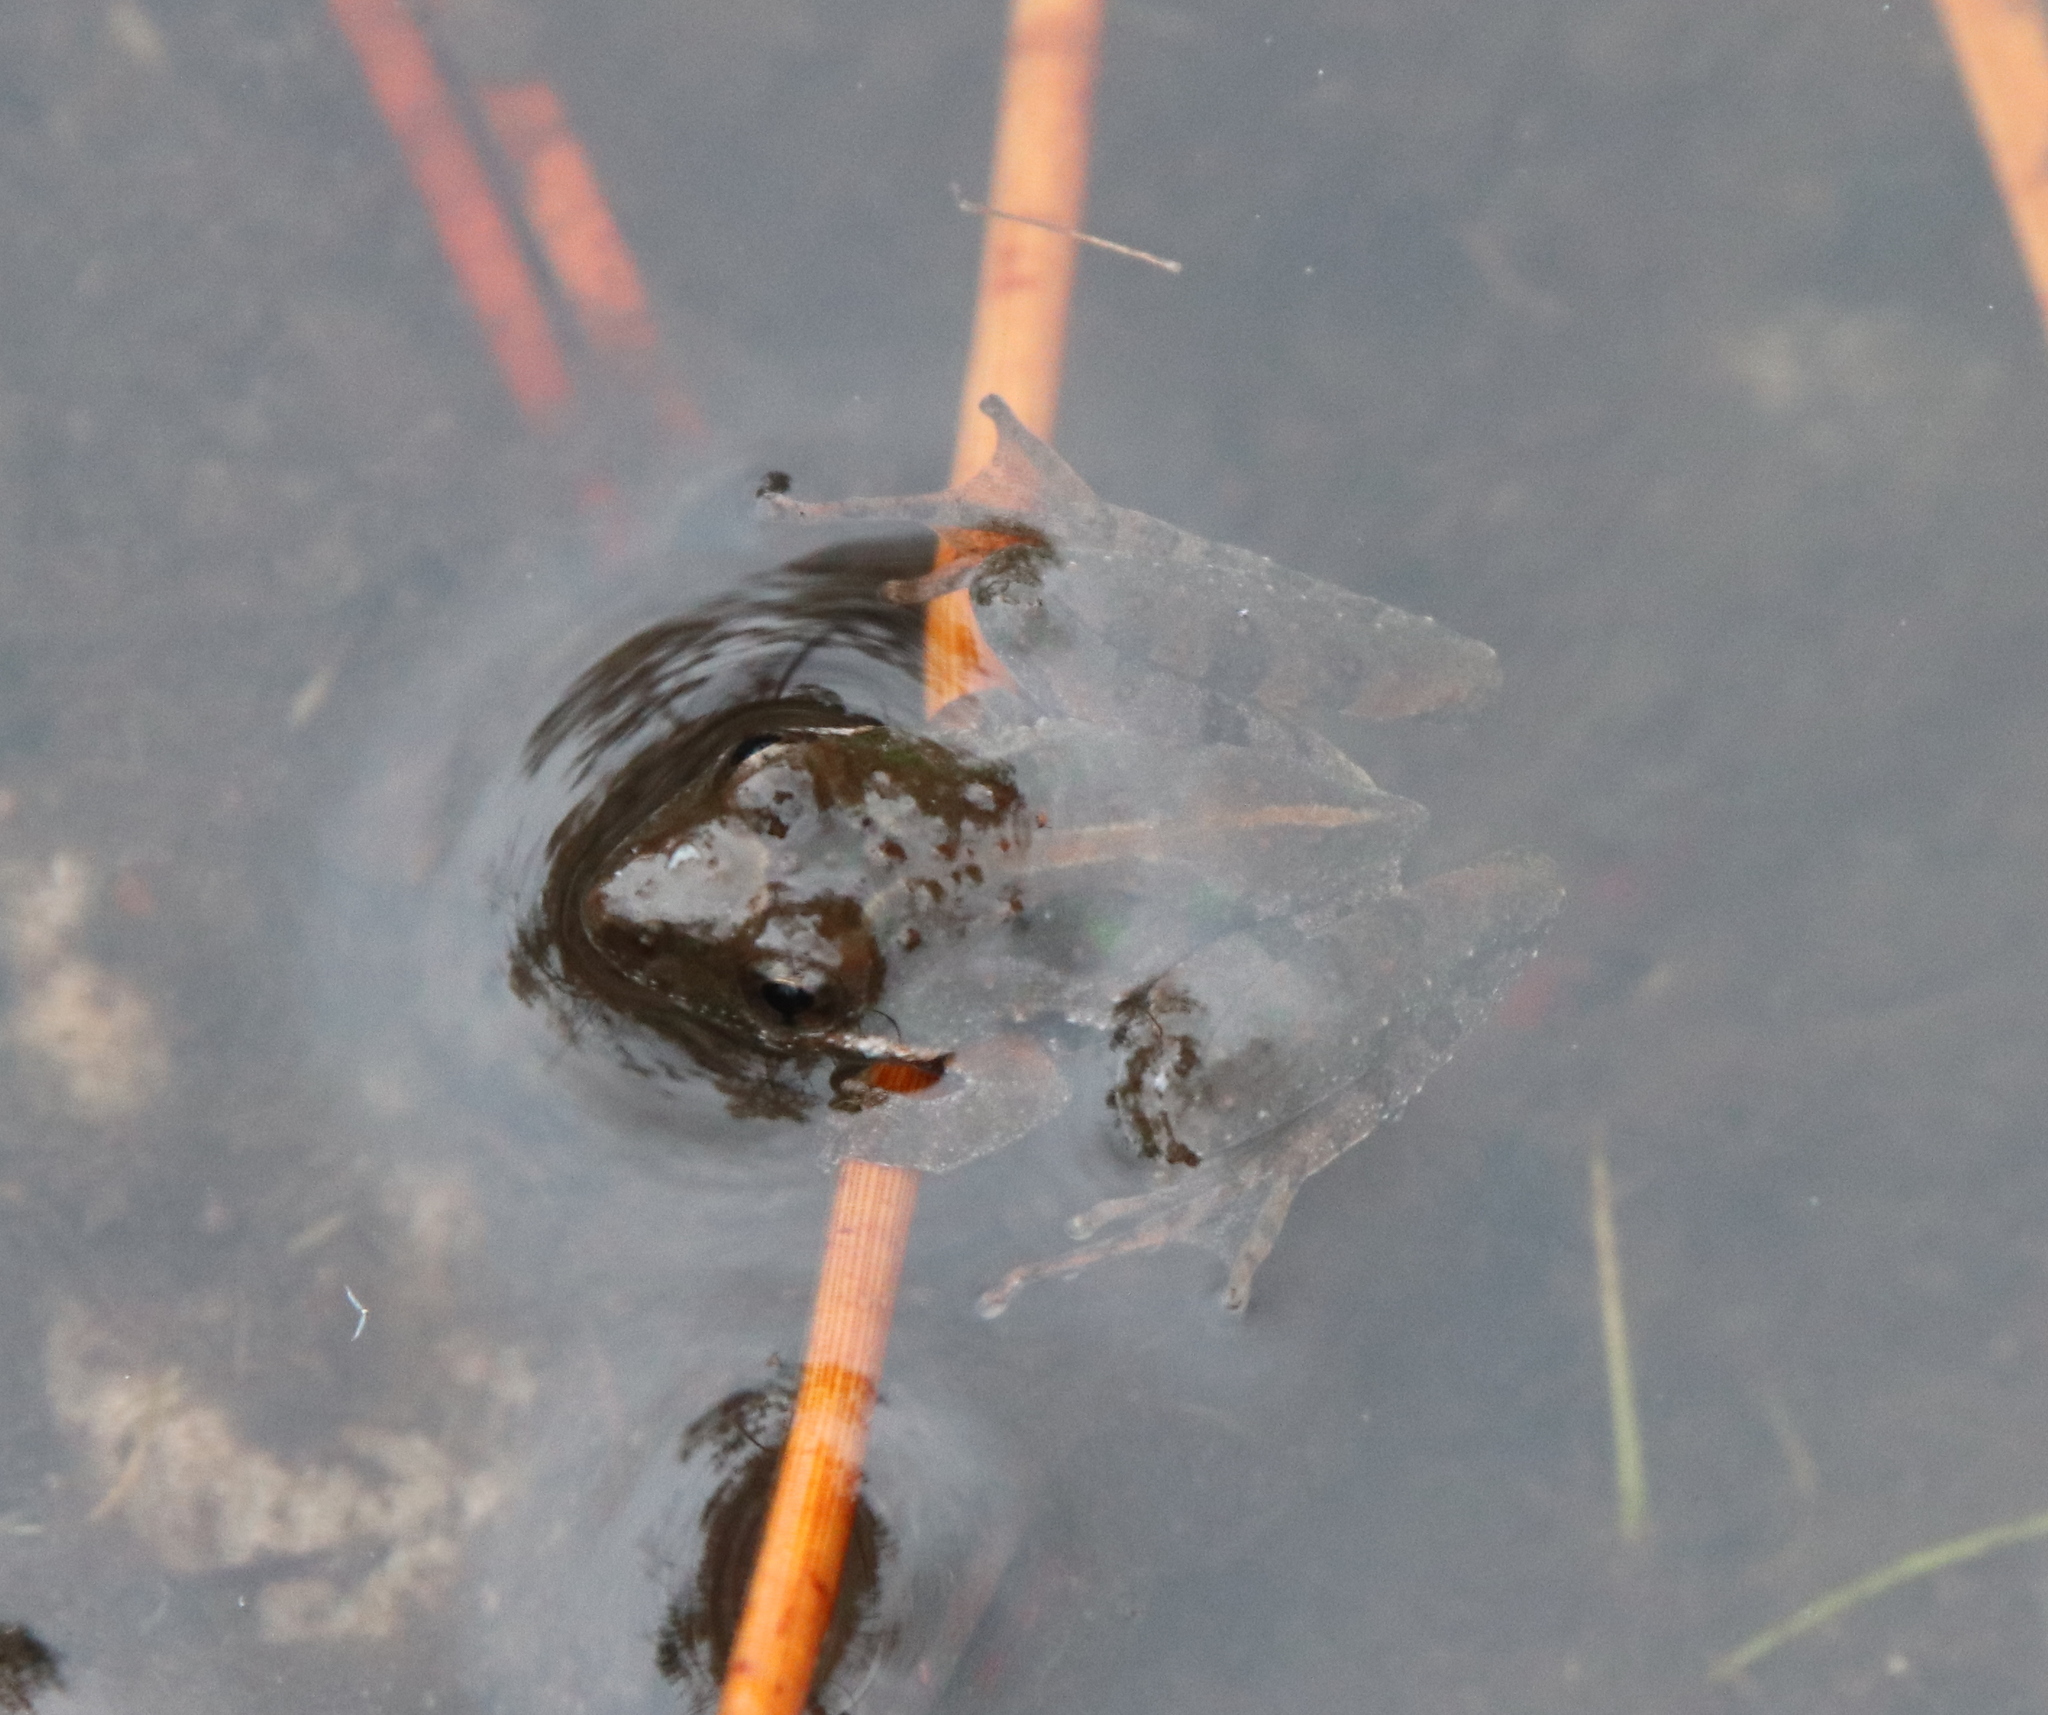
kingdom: Animalia
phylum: Chordata
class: Amphibia
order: Anura
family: Hylidae
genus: Acris
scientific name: Acris gryllus
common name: Southern cricket frog
